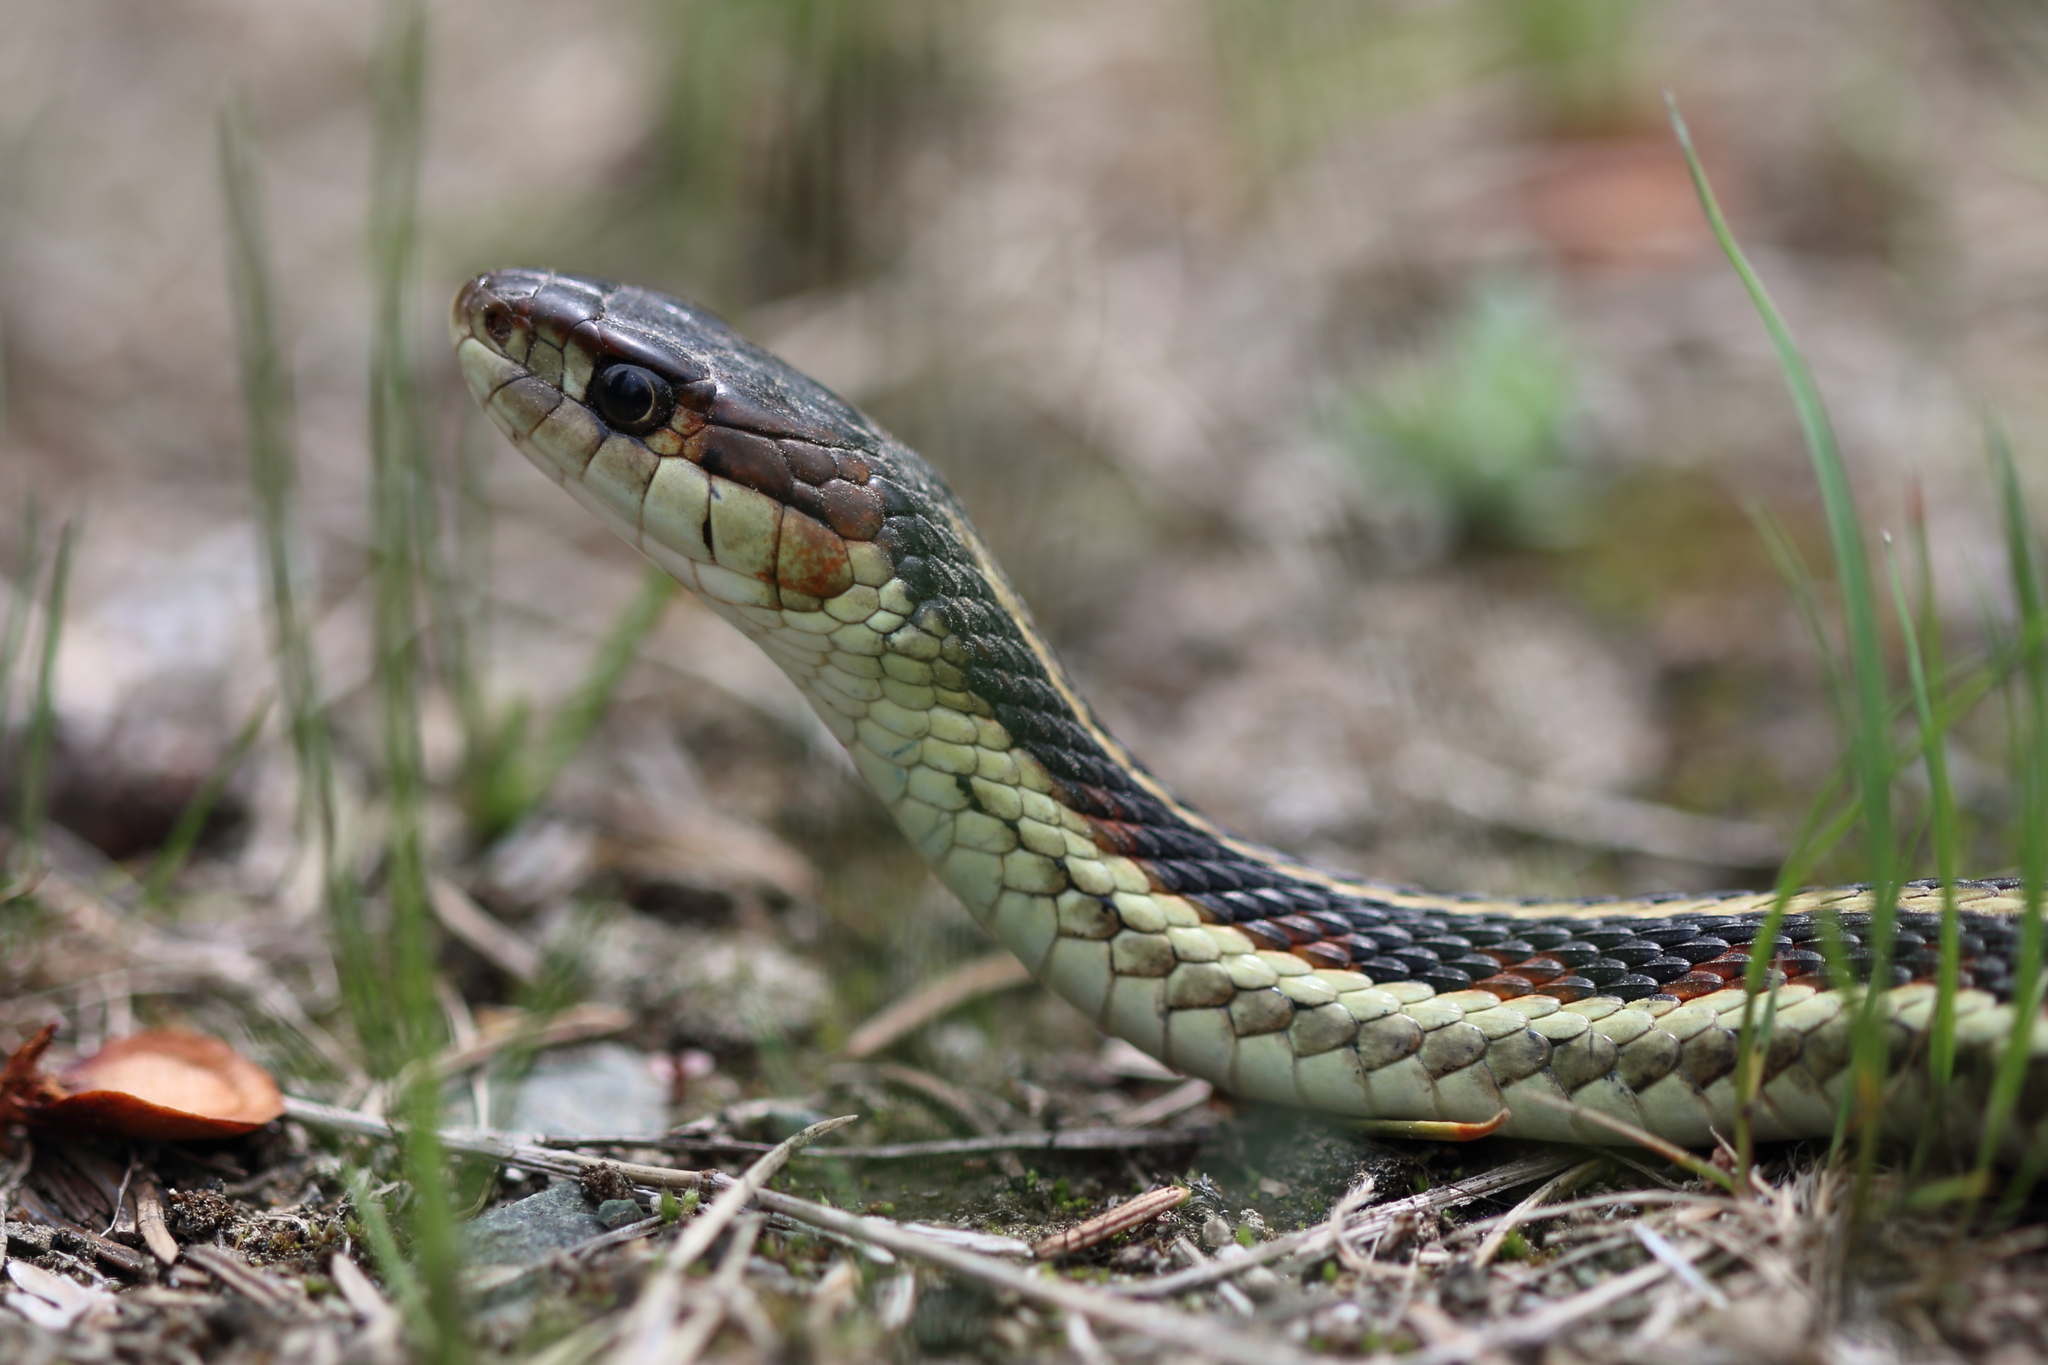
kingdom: Animalia
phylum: Chordata
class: Squamata
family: Colubridae
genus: Thamnophis
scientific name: Thamnophis sirtalis
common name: Common garter snake
